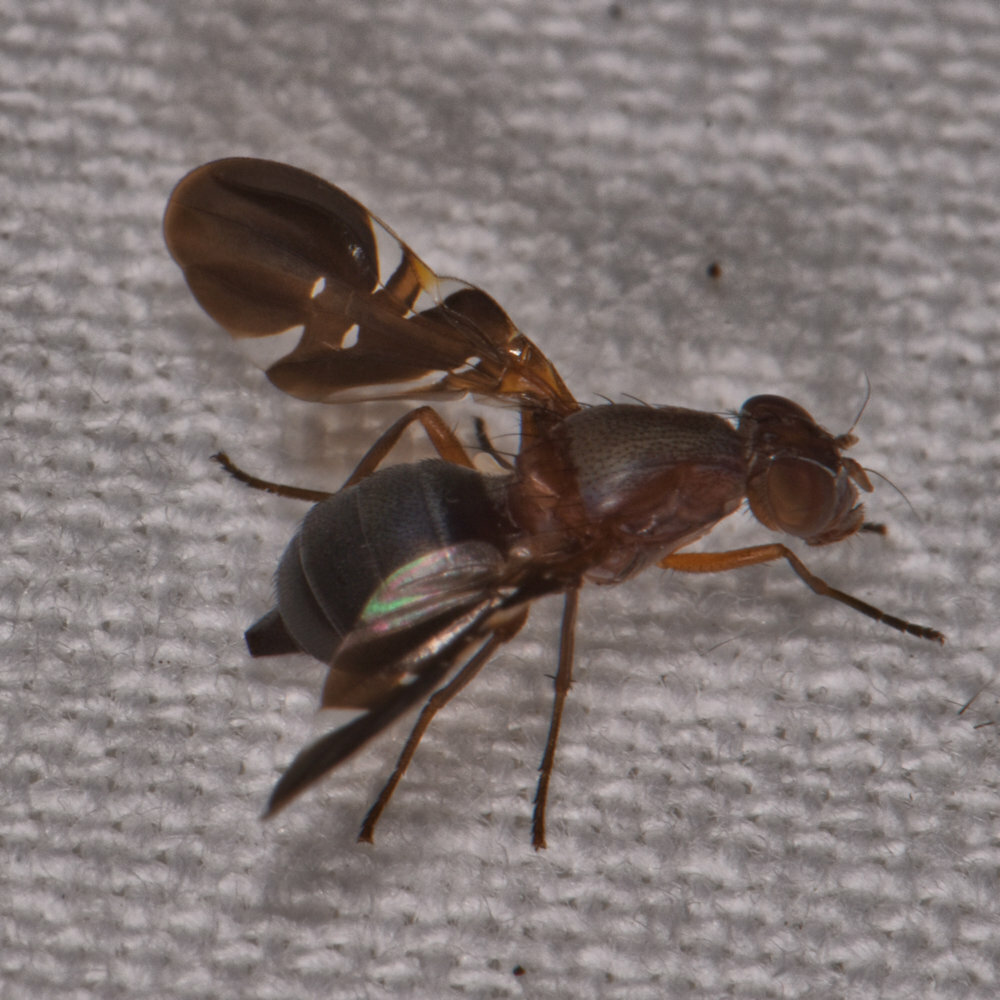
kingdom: Animalia
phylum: Arthropoda
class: Insecta
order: Diptera
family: Ulidiidae
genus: Delphinia
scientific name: Delphinia picta
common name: Common picture-winged fly
